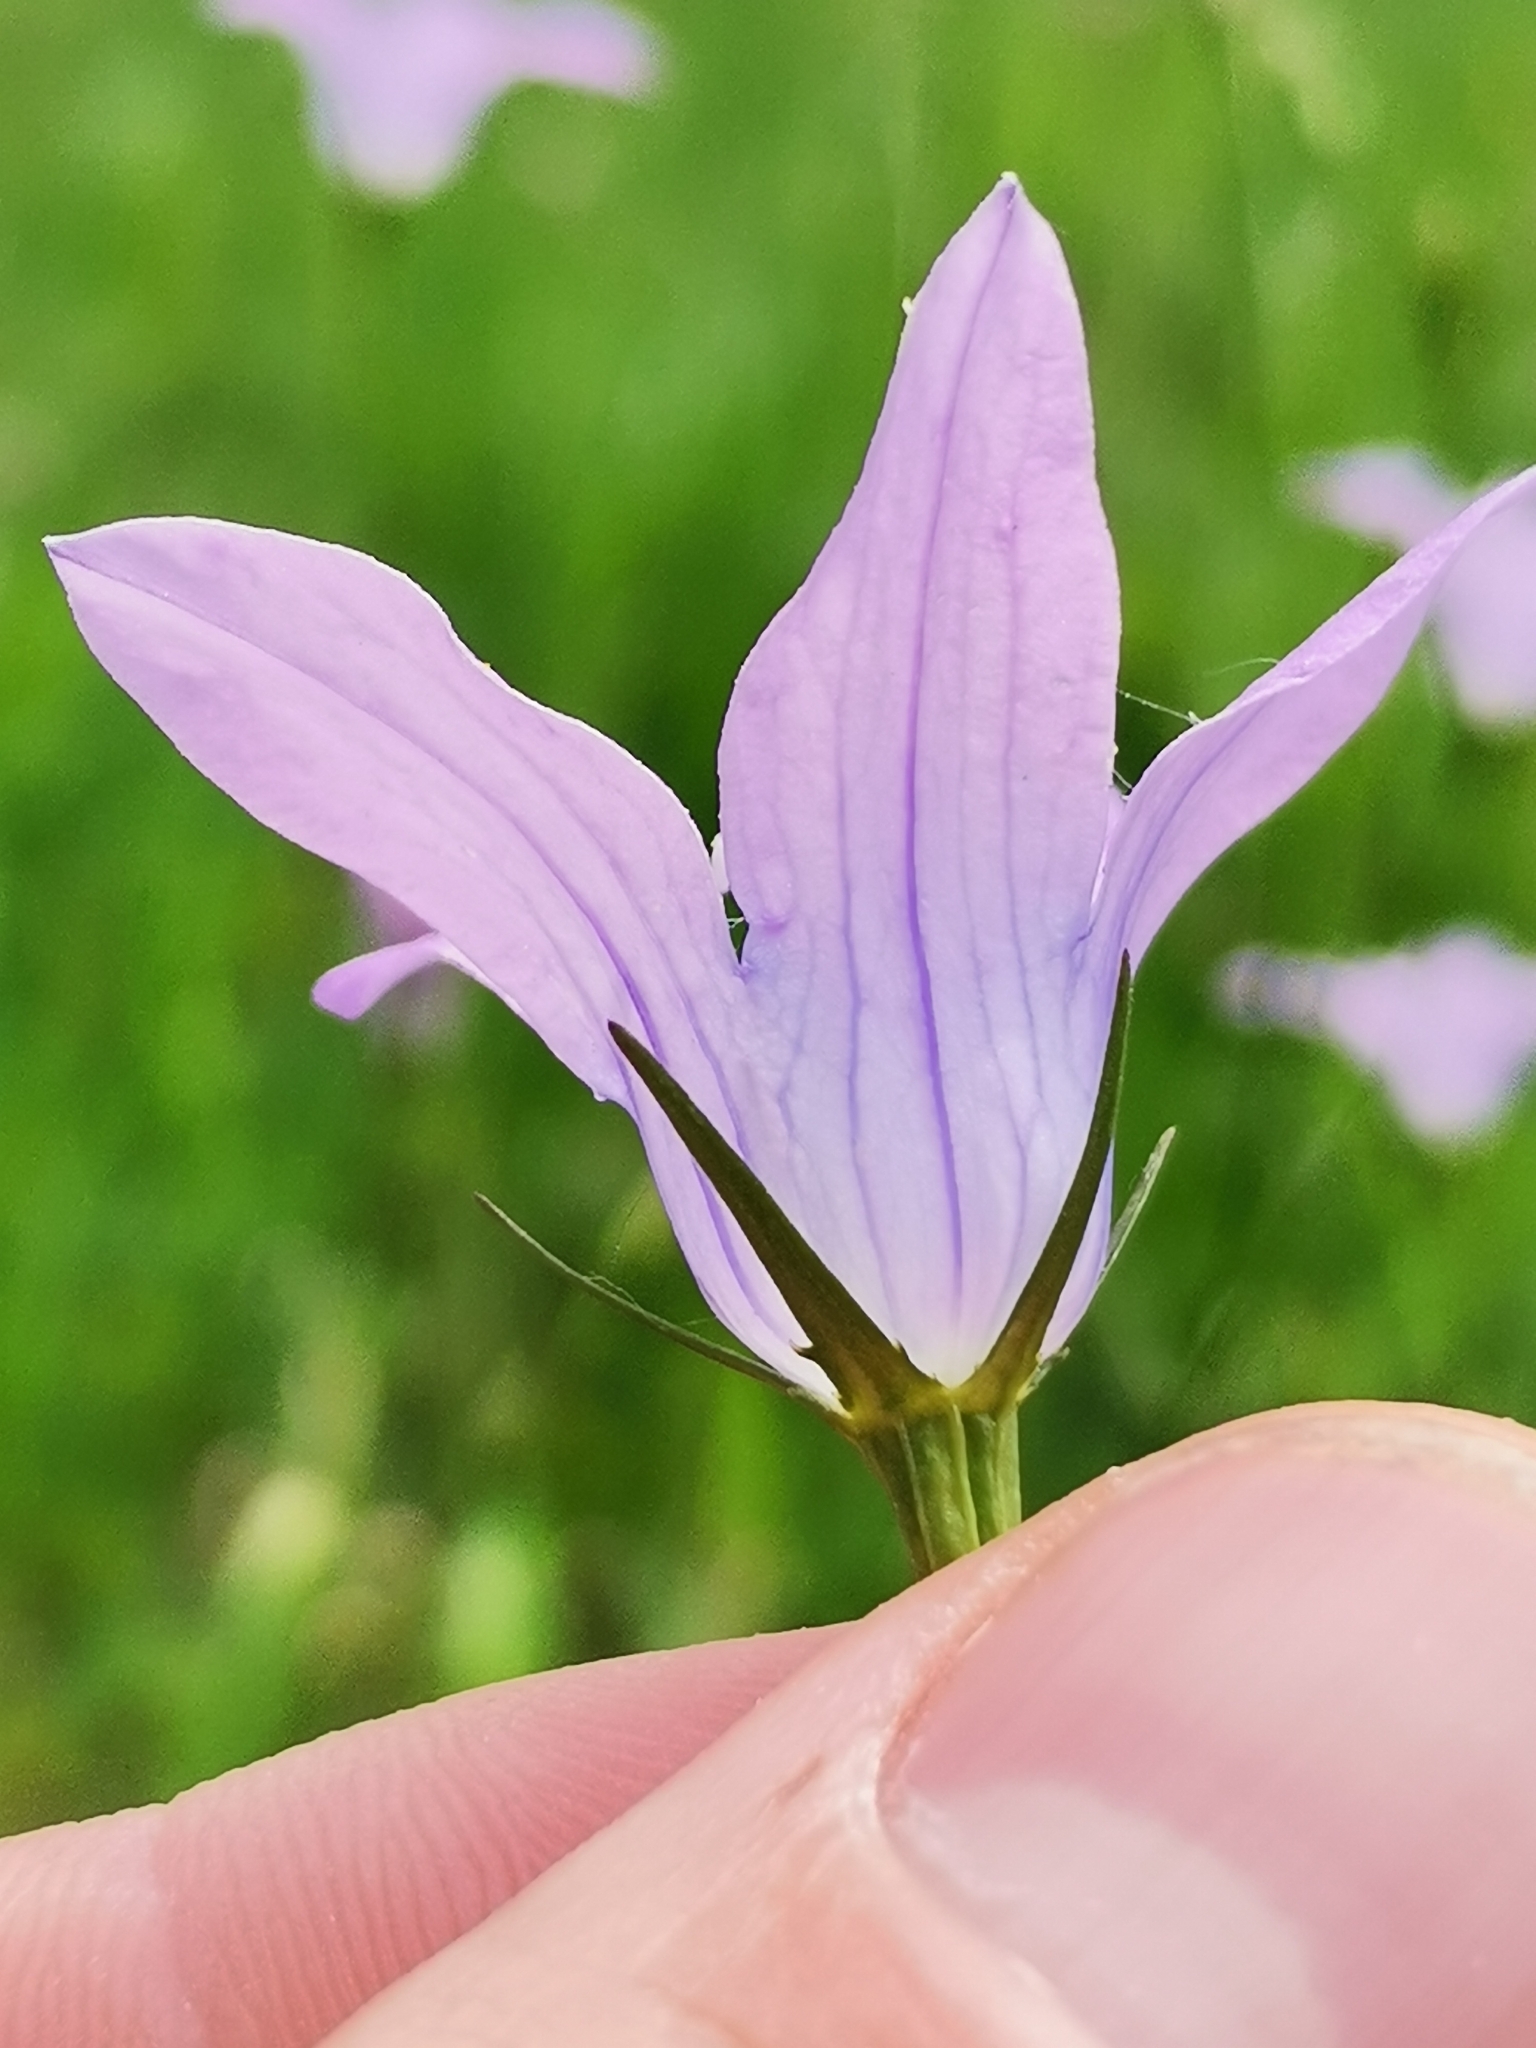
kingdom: Plantae
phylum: Tracheophyta
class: Magnoliopsida
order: Asterales
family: Campanulaceae
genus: Campanula
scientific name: Campanula patula
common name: Spreading bellflower
